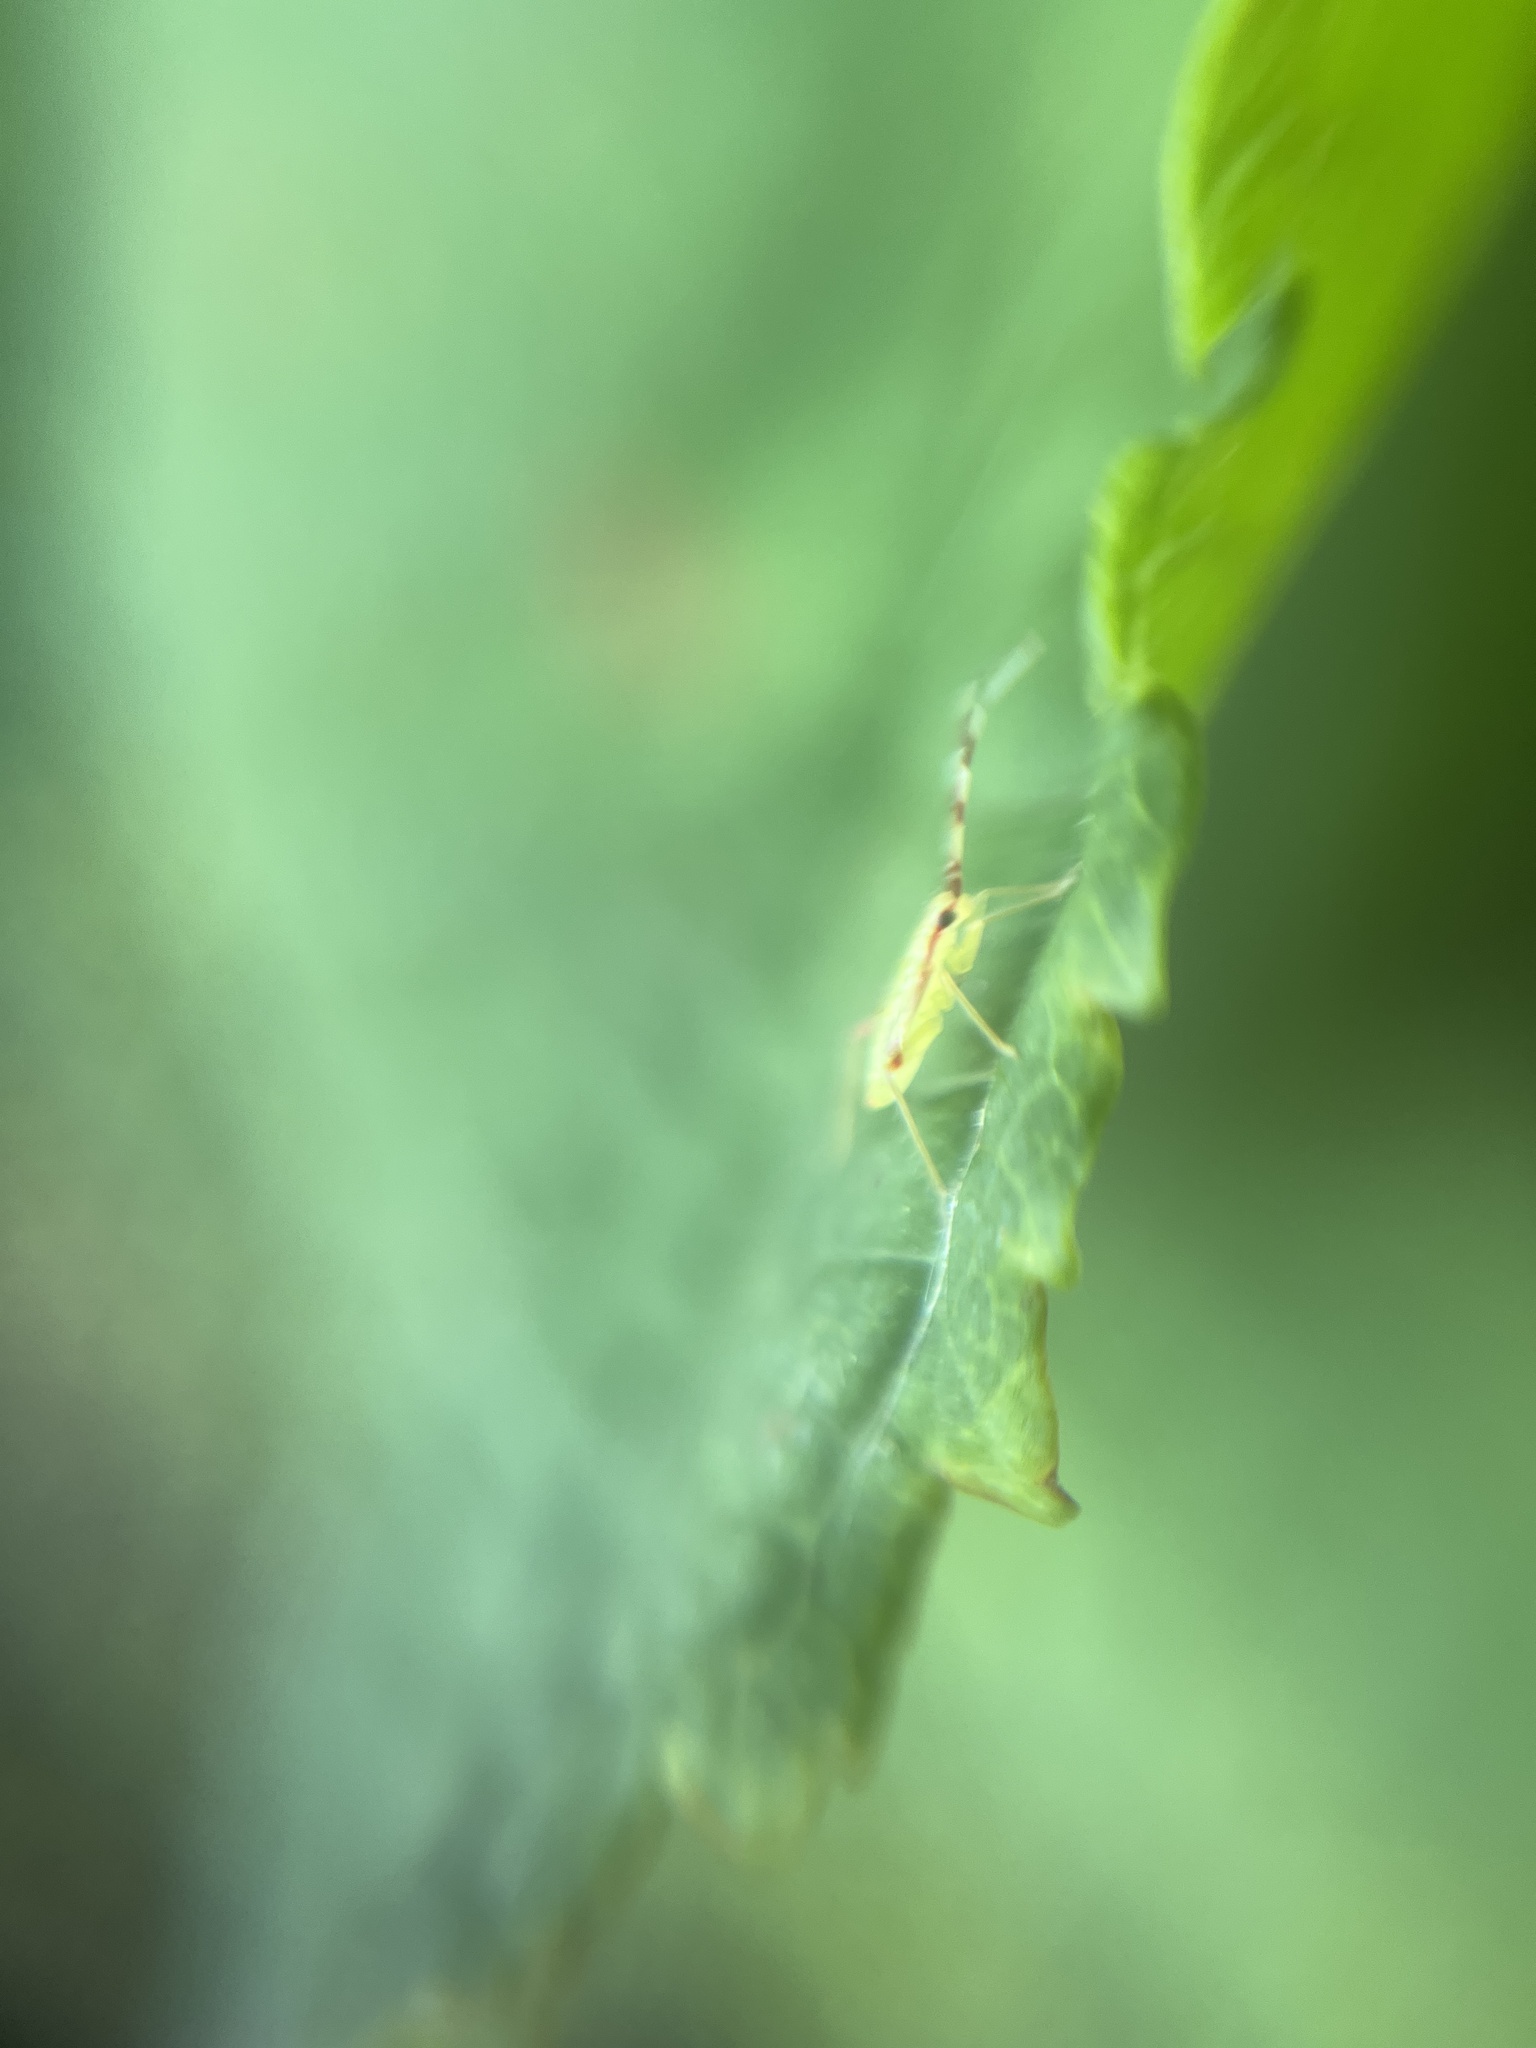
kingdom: Animalia
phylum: Arthropoda
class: Insecta
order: Hemiptera
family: Miridae
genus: Campyloneura
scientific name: Campyloneura virgula
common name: Predatory bug
